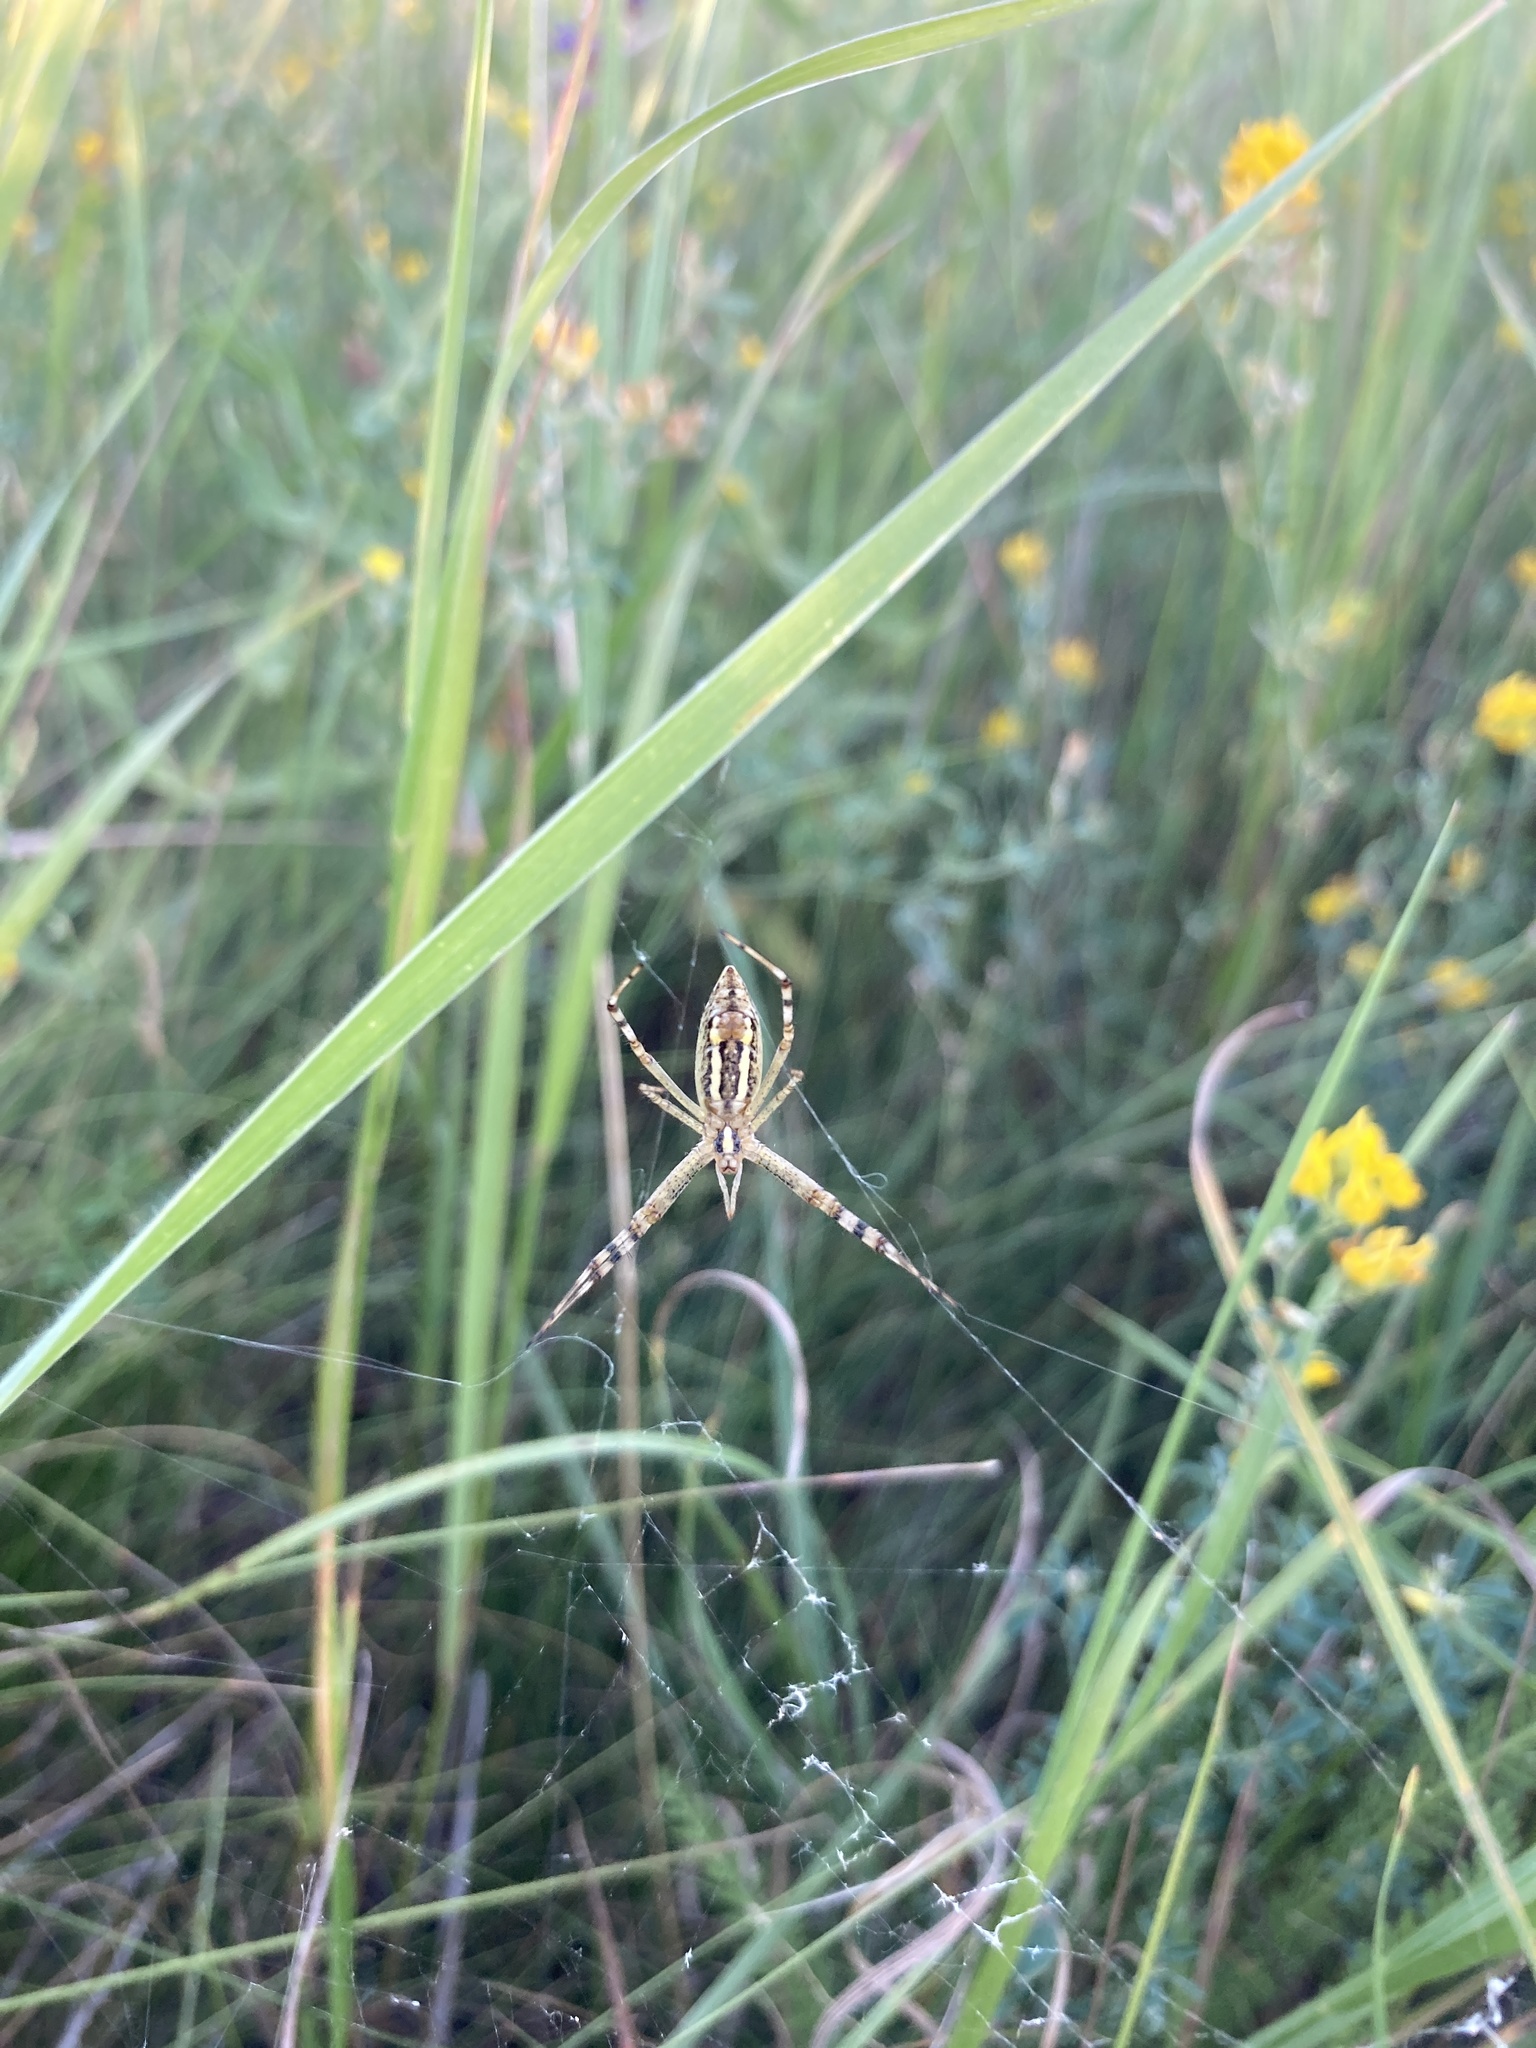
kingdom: Animalia
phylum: Arthropoda
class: Arachnida
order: Araneae
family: Araneidae
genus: Argiope
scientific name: Argiope bruennichi
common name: Wasp spider
